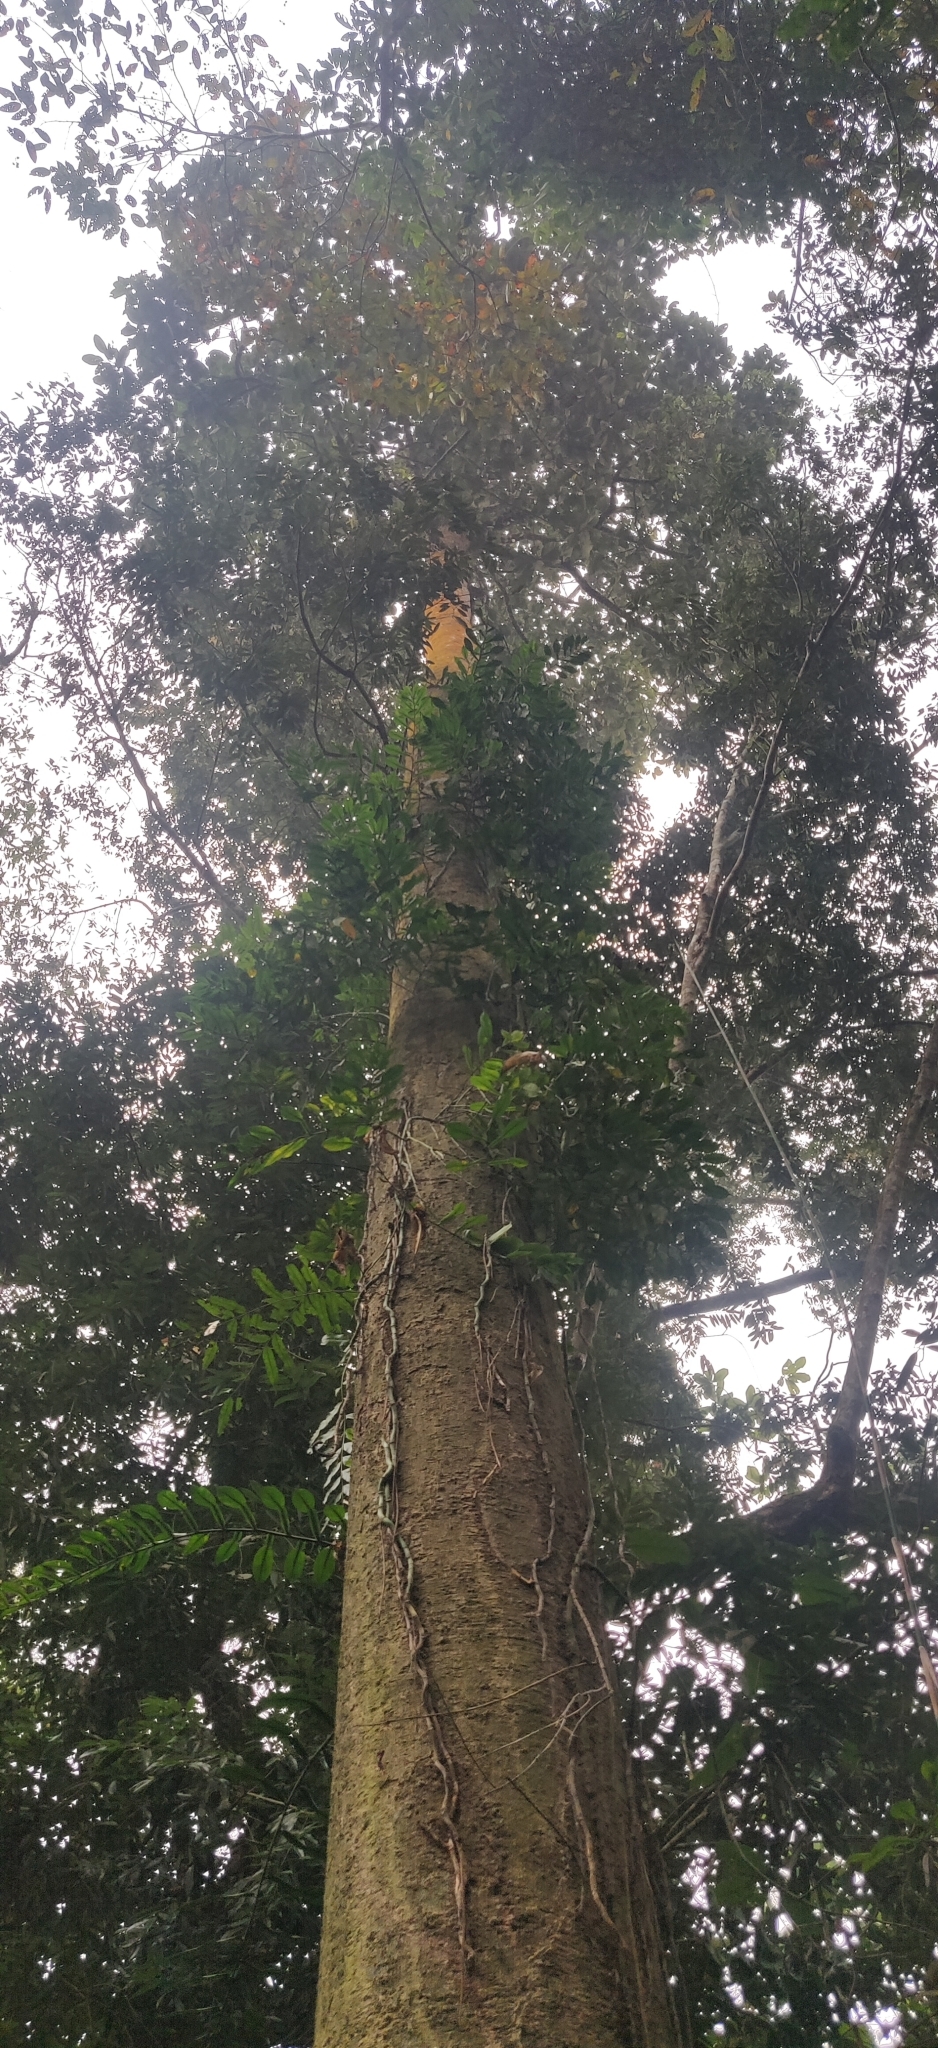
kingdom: Plantae
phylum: Tracheophyta
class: Magnoliopsida
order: Malvales
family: Dipterocarpaceae
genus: Dipterocarpus
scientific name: Dipterocarpus retusus
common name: Hollong
